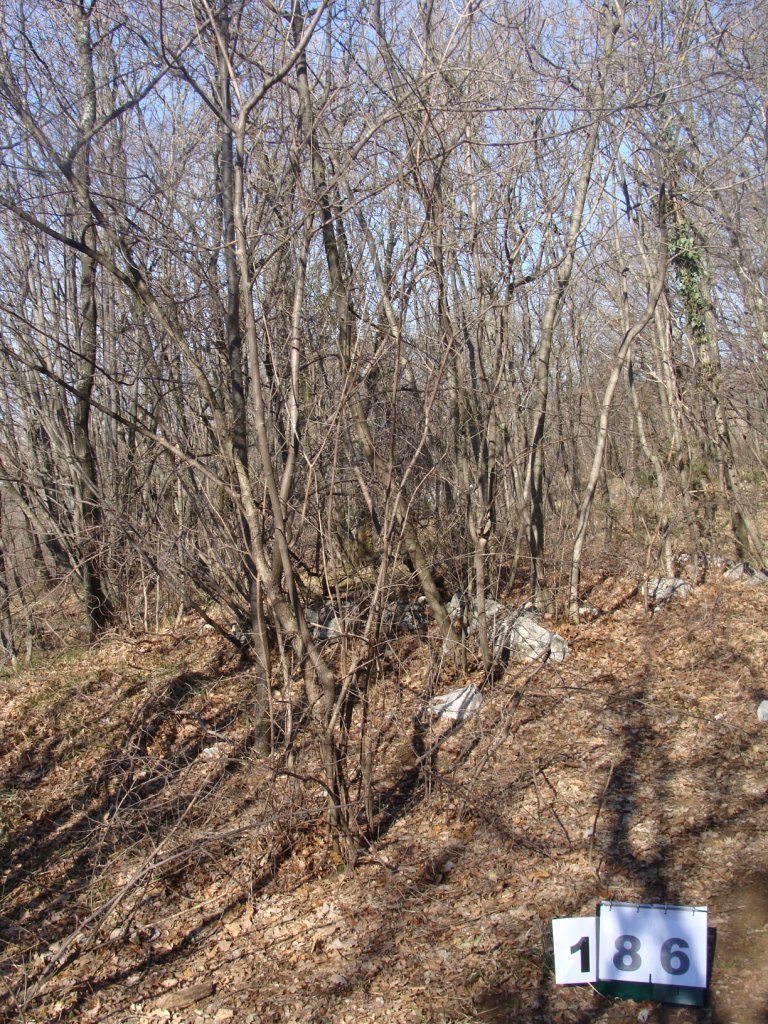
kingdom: Plantae
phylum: Tracheophyta
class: Magnoliopsida
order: Cornales
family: Cornaceae
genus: Cornus
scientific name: Cornus mas
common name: Cornelian-cherry
